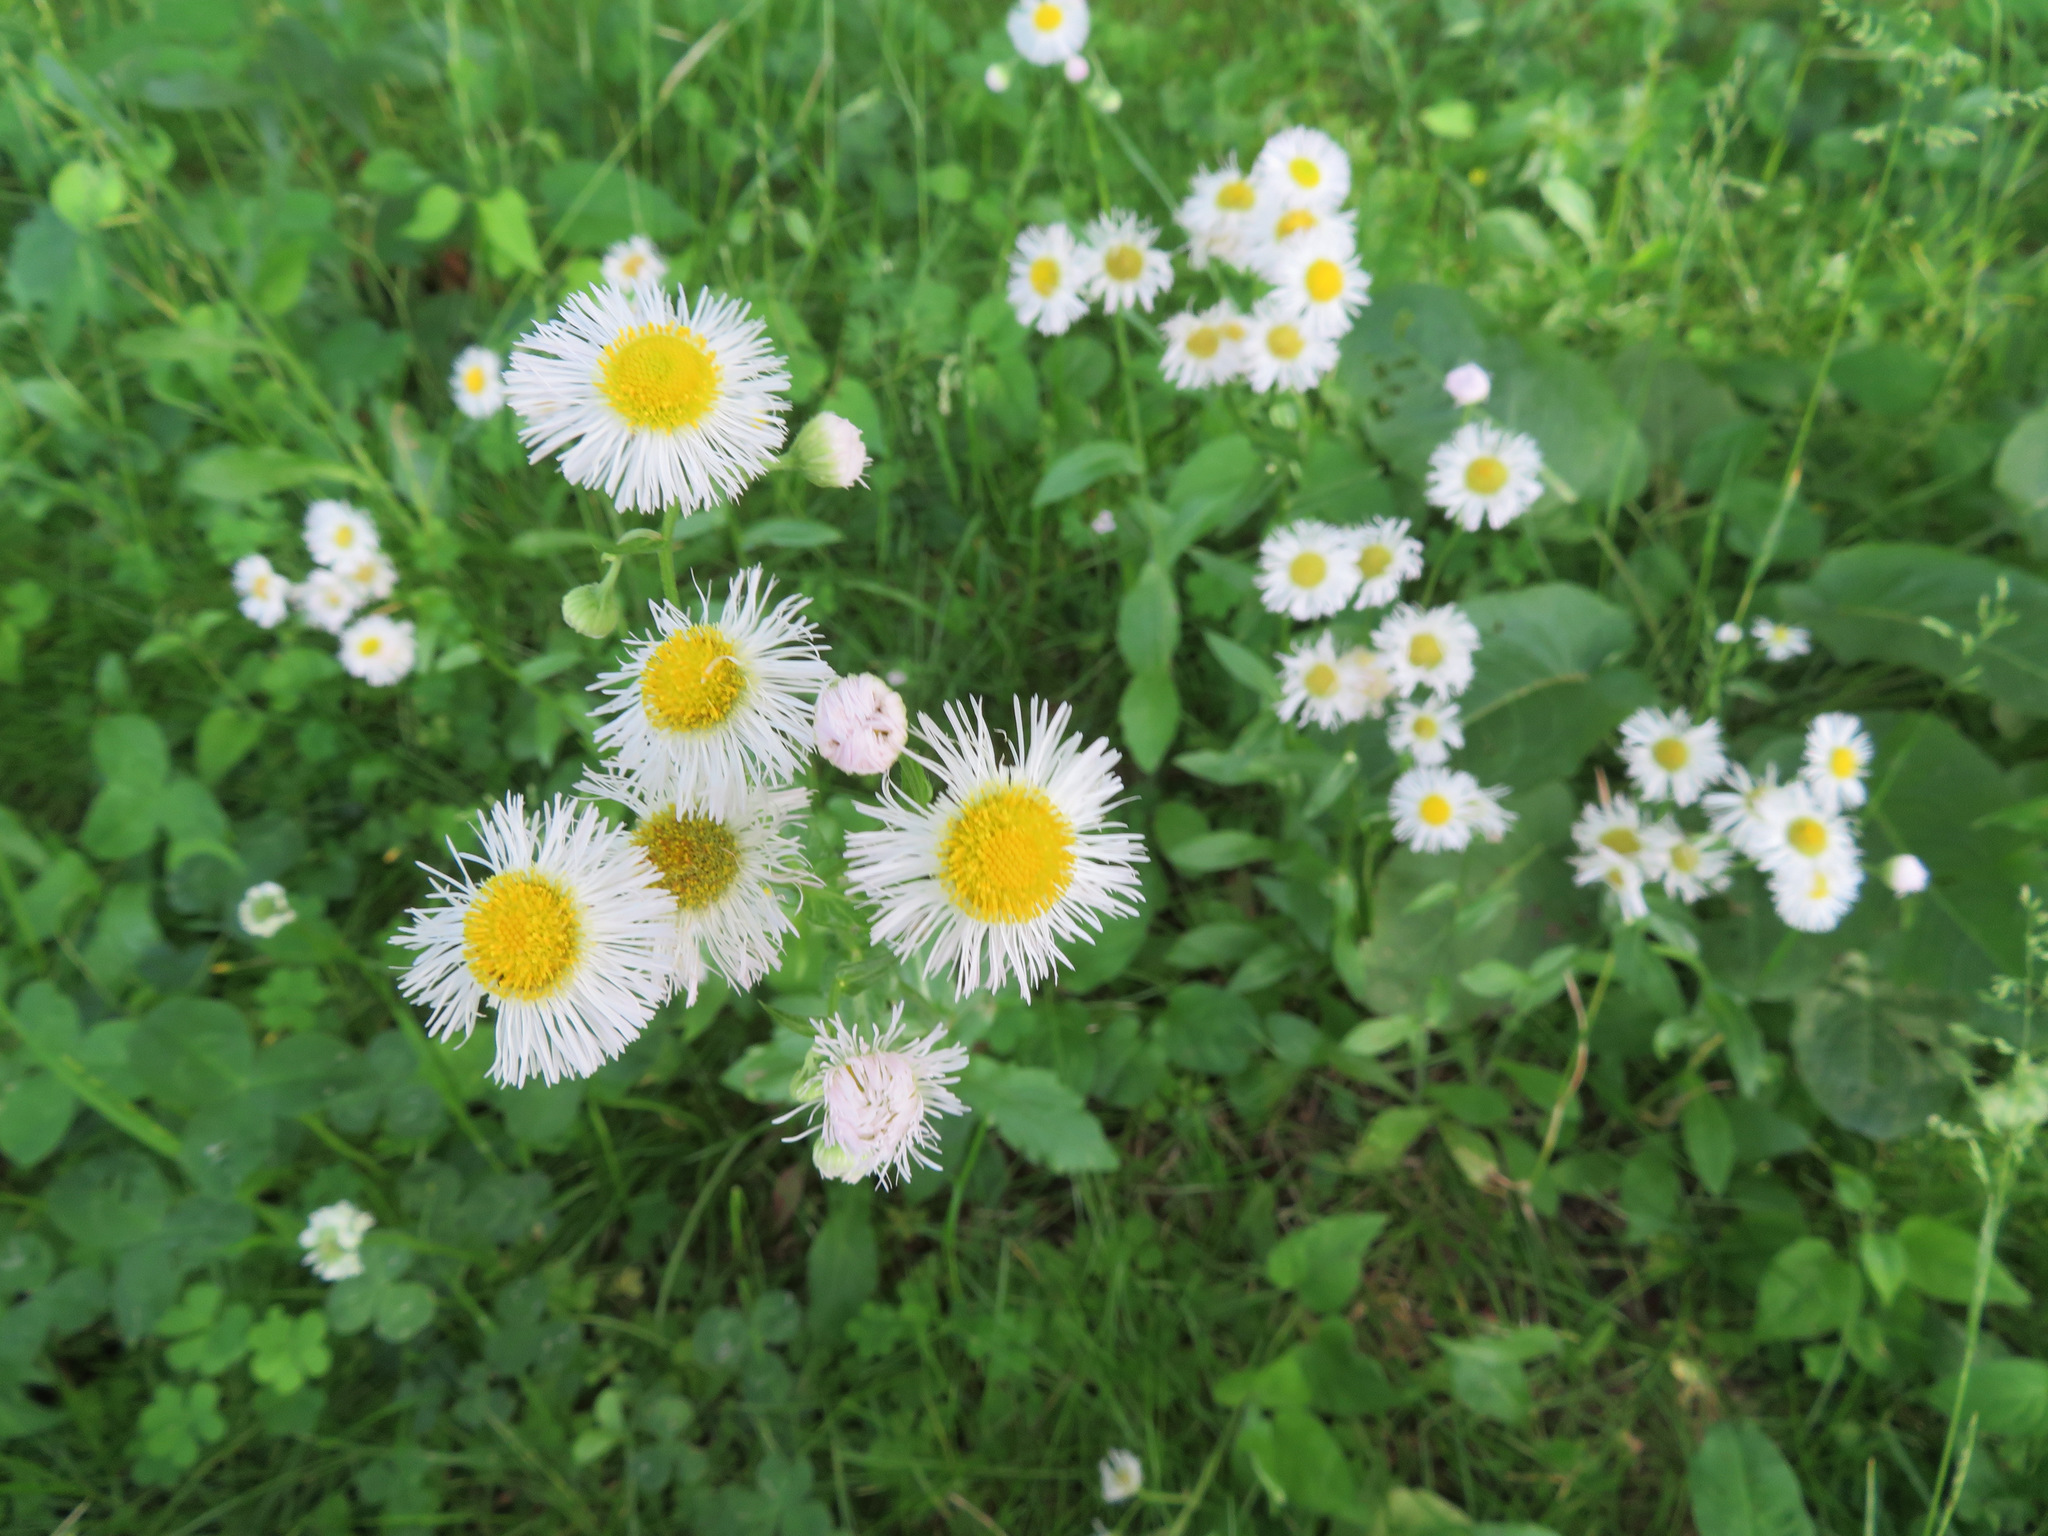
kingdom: Plantae
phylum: Tracheophyta
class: Magnoliopsida
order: Asterales
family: Asteraceae
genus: Erigeron
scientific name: Erigeron philadelphicus
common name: Robin's-plantain
